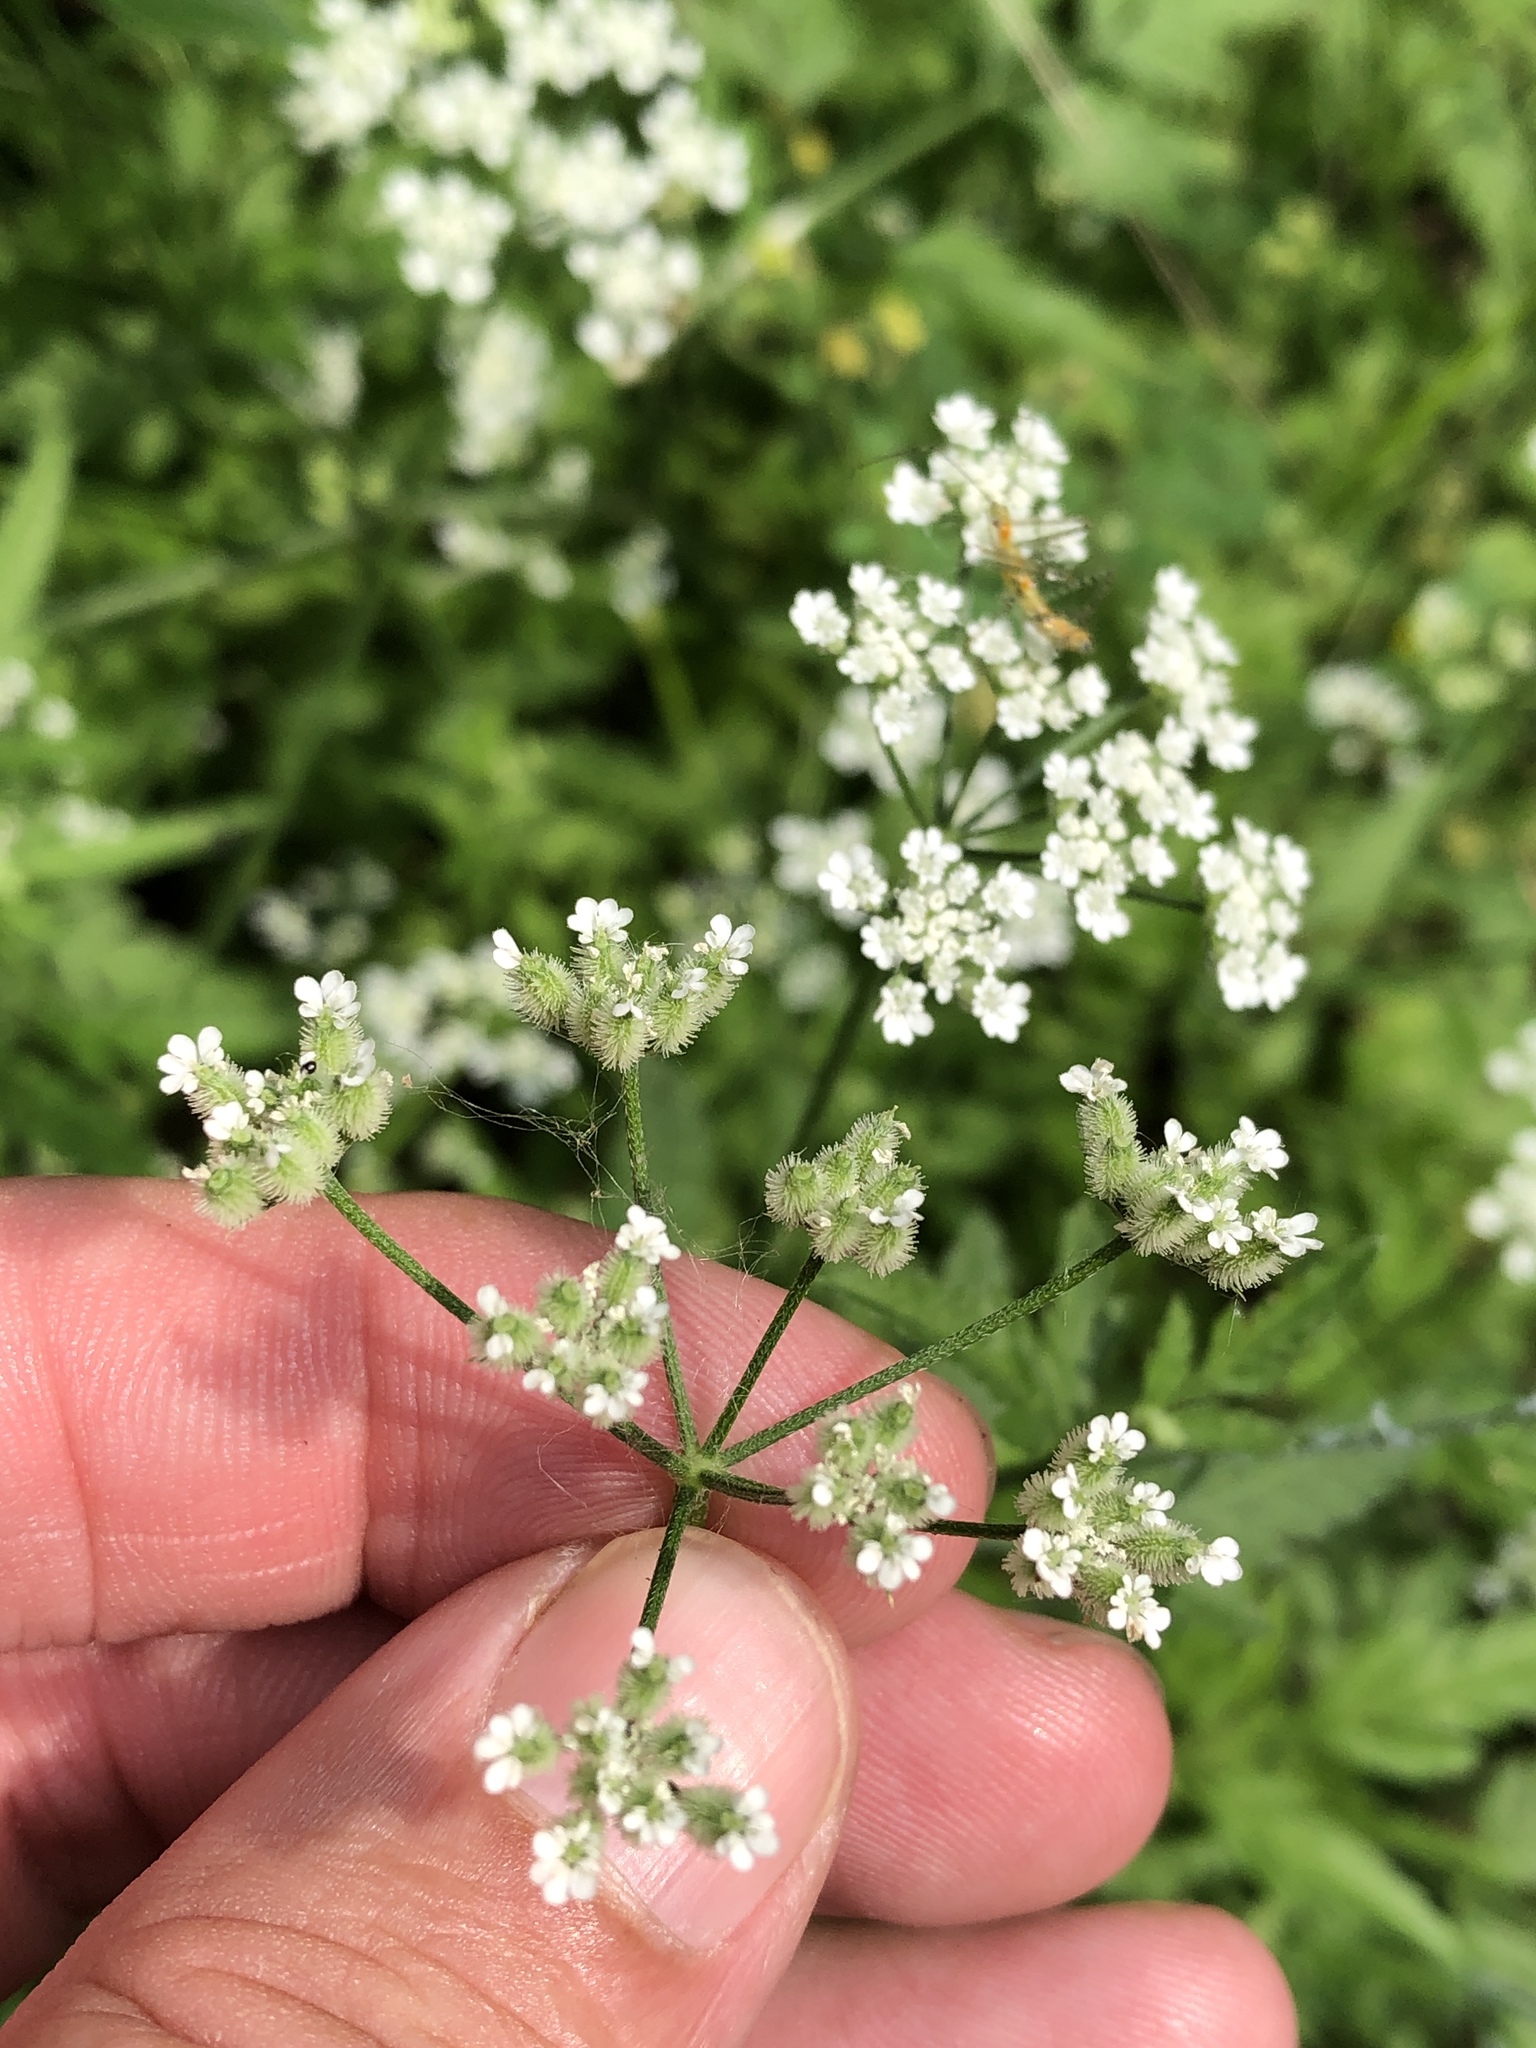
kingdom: Plantae
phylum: Tracheophyta
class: Magnoliopsida
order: Apiales
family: Apiaceae
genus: Torilis
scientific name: Torilis arvensis
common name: Spreading hedge-parsley
